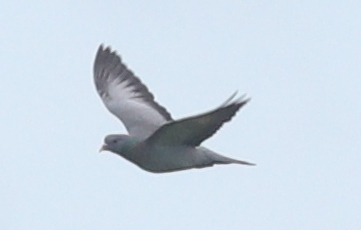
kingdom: Animalia
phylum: Chordata
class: Aves
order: Columbiformes
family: Columbidae
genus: Columba
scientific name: Columba oenas
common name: Stock dove
